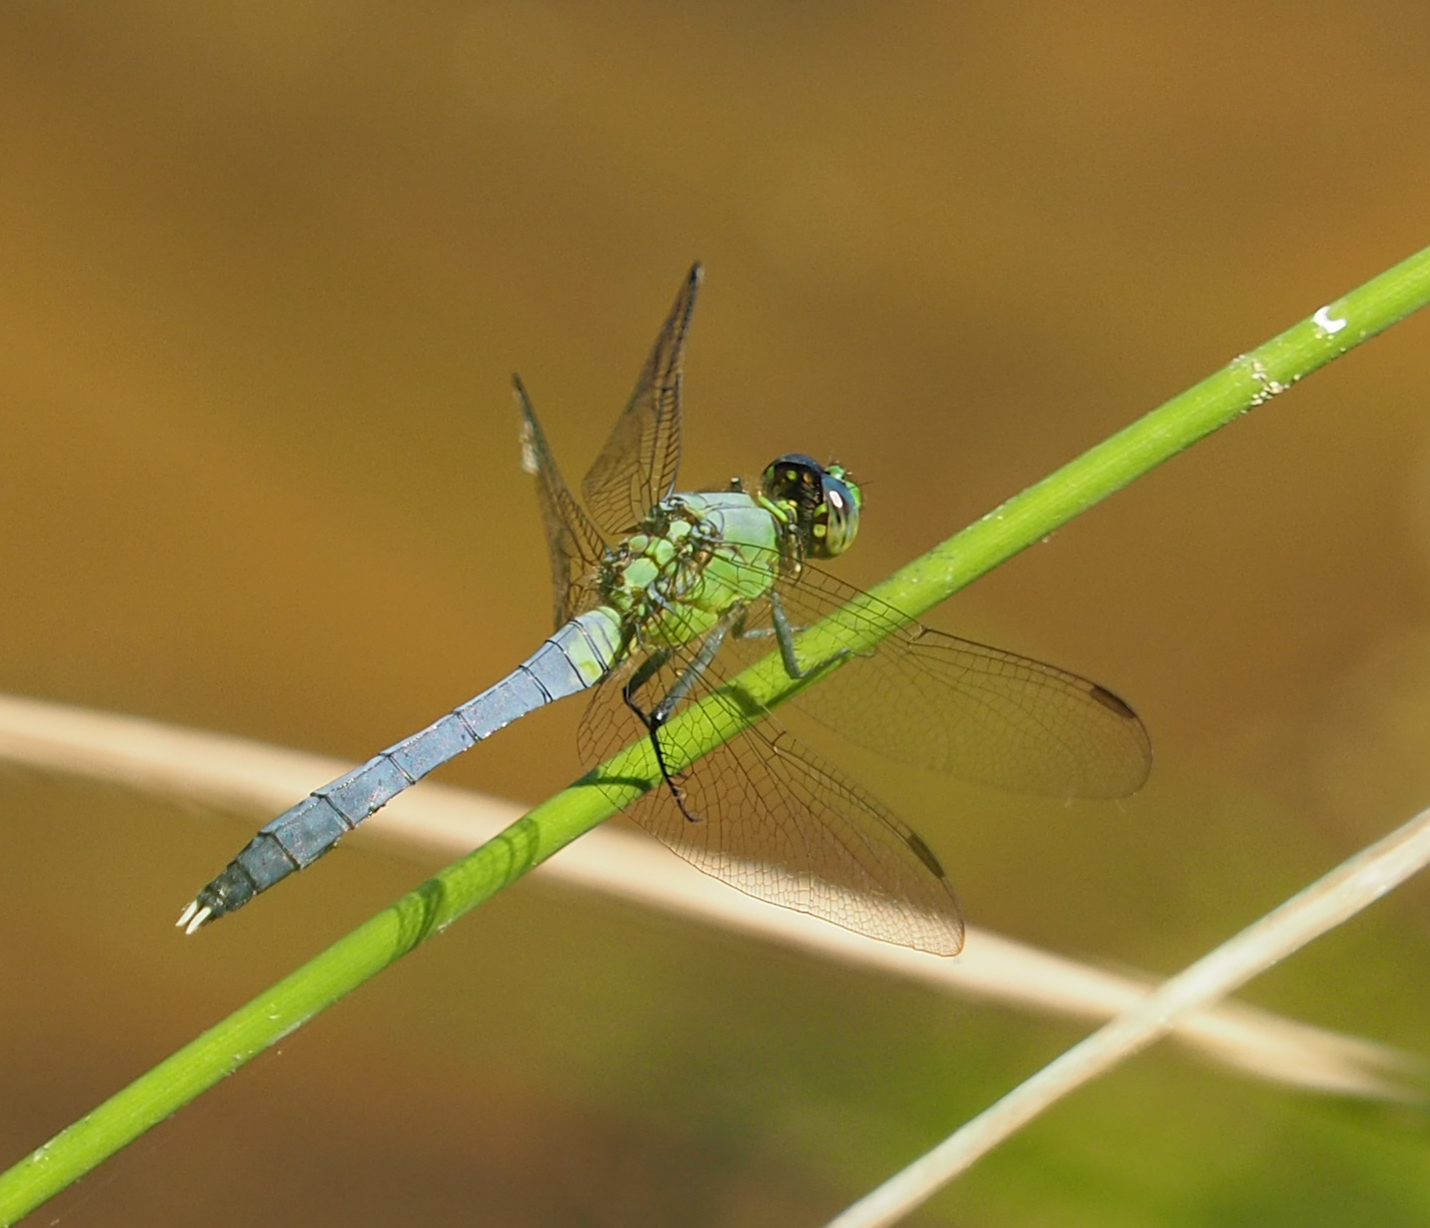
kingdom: Animalia
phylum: Arthropoda
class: Insecta
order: Odonata
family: Libellulidae
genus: Erythemis
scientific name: Erythemis simplicicollis
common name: Eastern pondhawk
